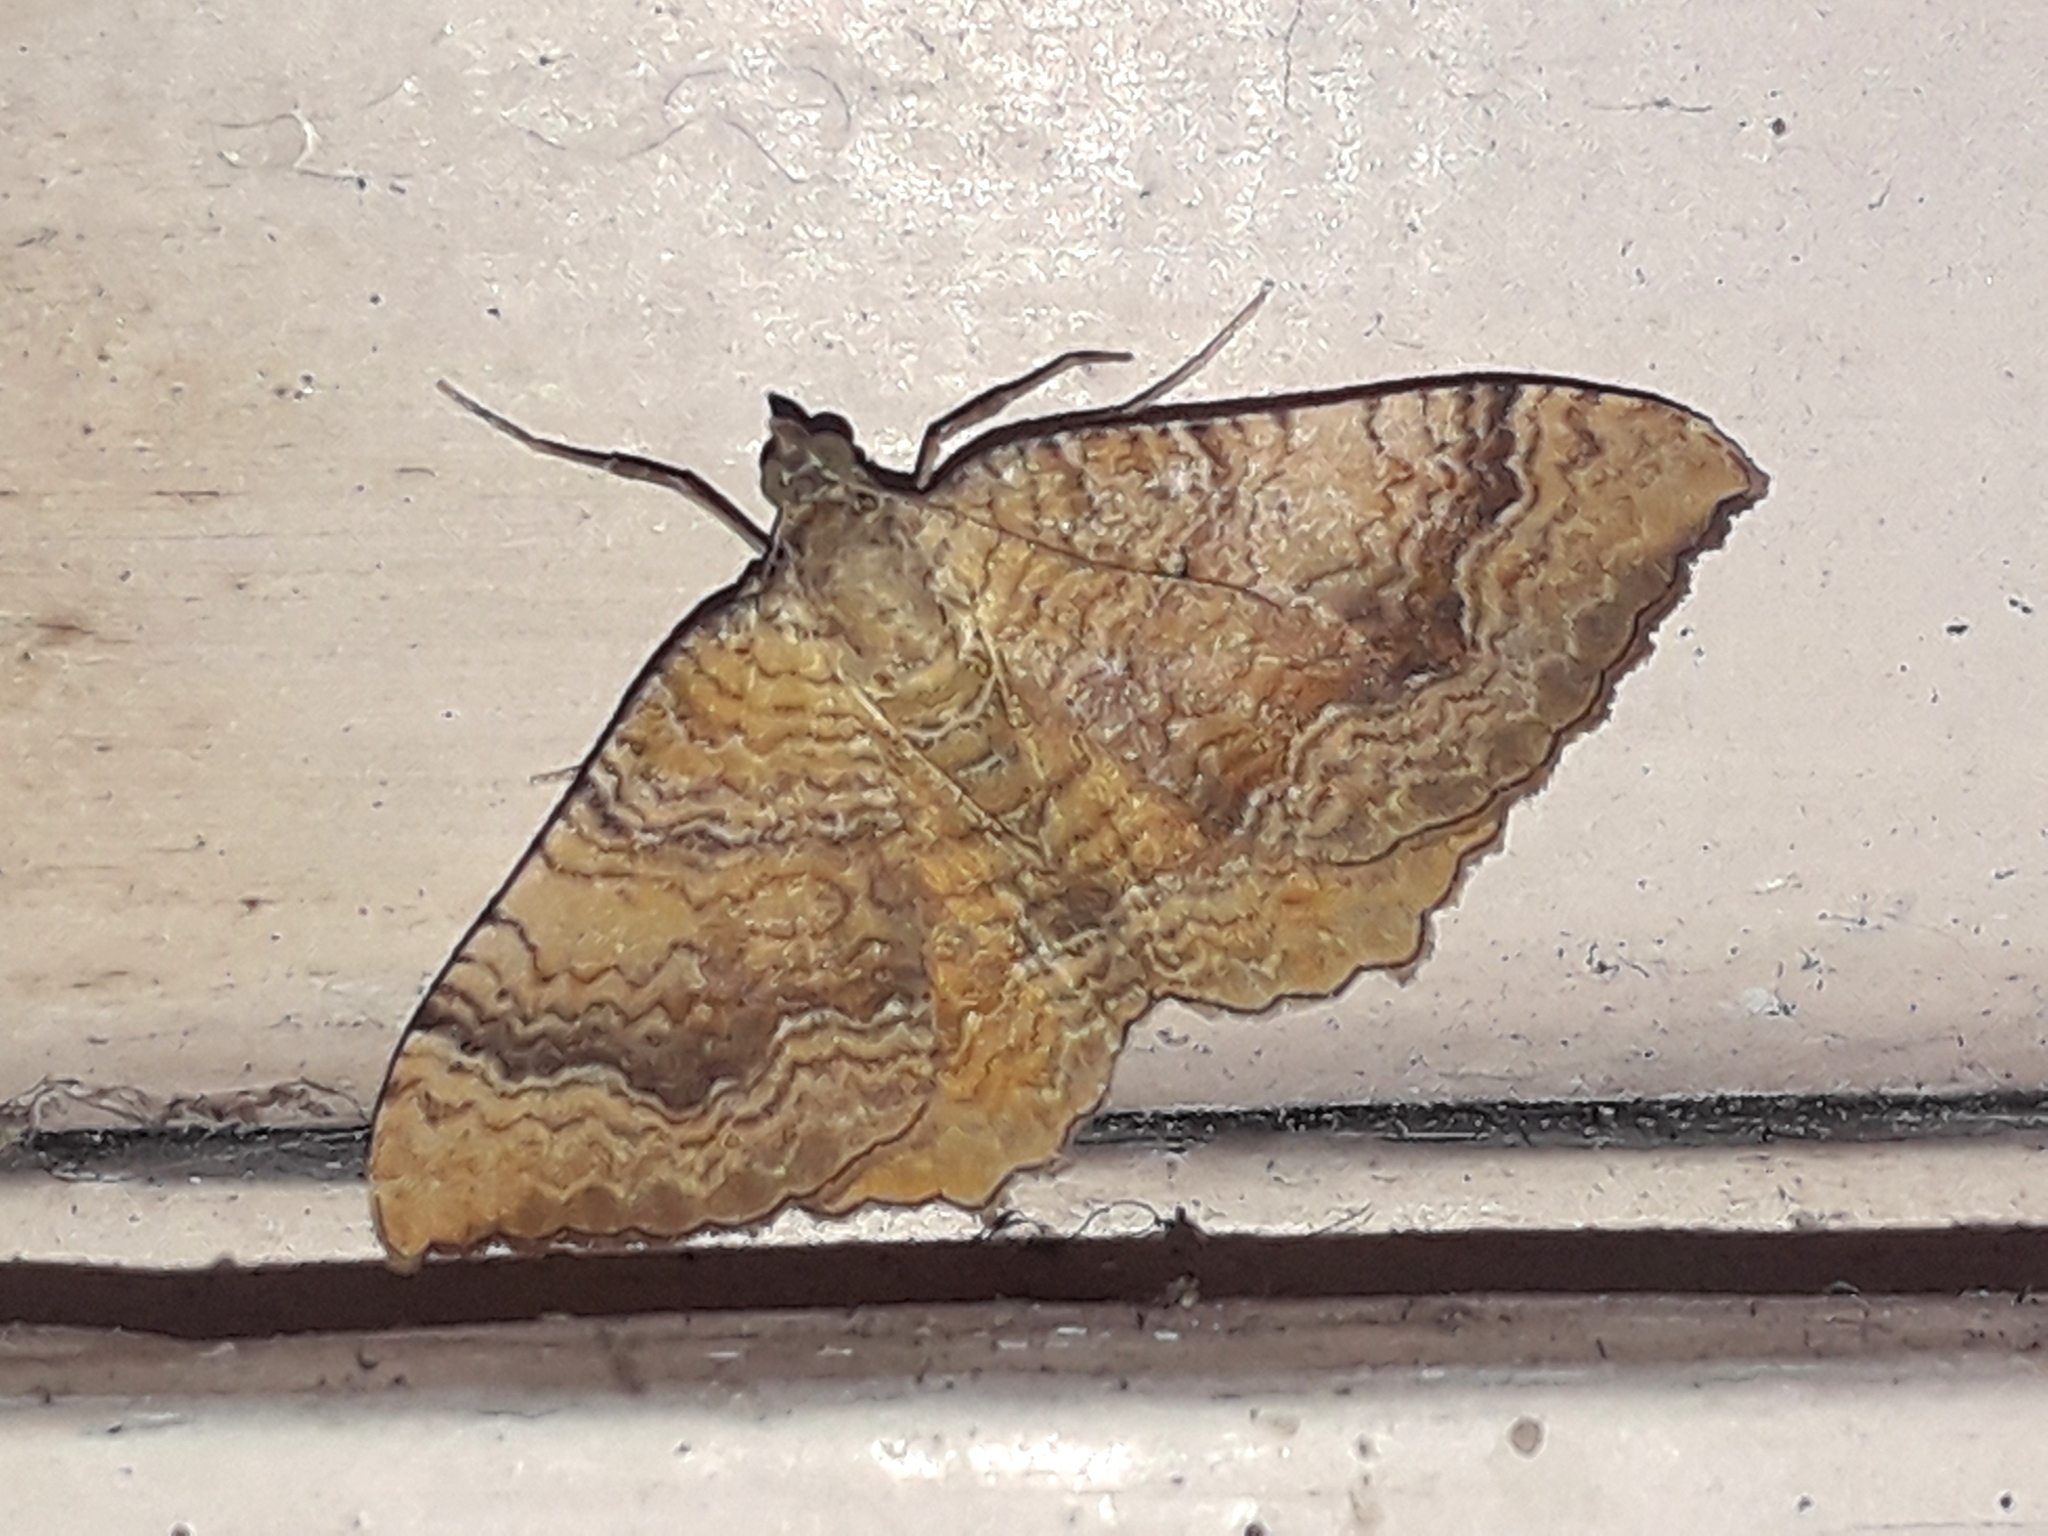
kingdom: Animalia
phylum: Arthropoda
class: Insecta
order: Lepidoptera
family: Geometridae
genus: Camptogramma
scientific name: Camptogramma bilineata
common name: Yellow shell
